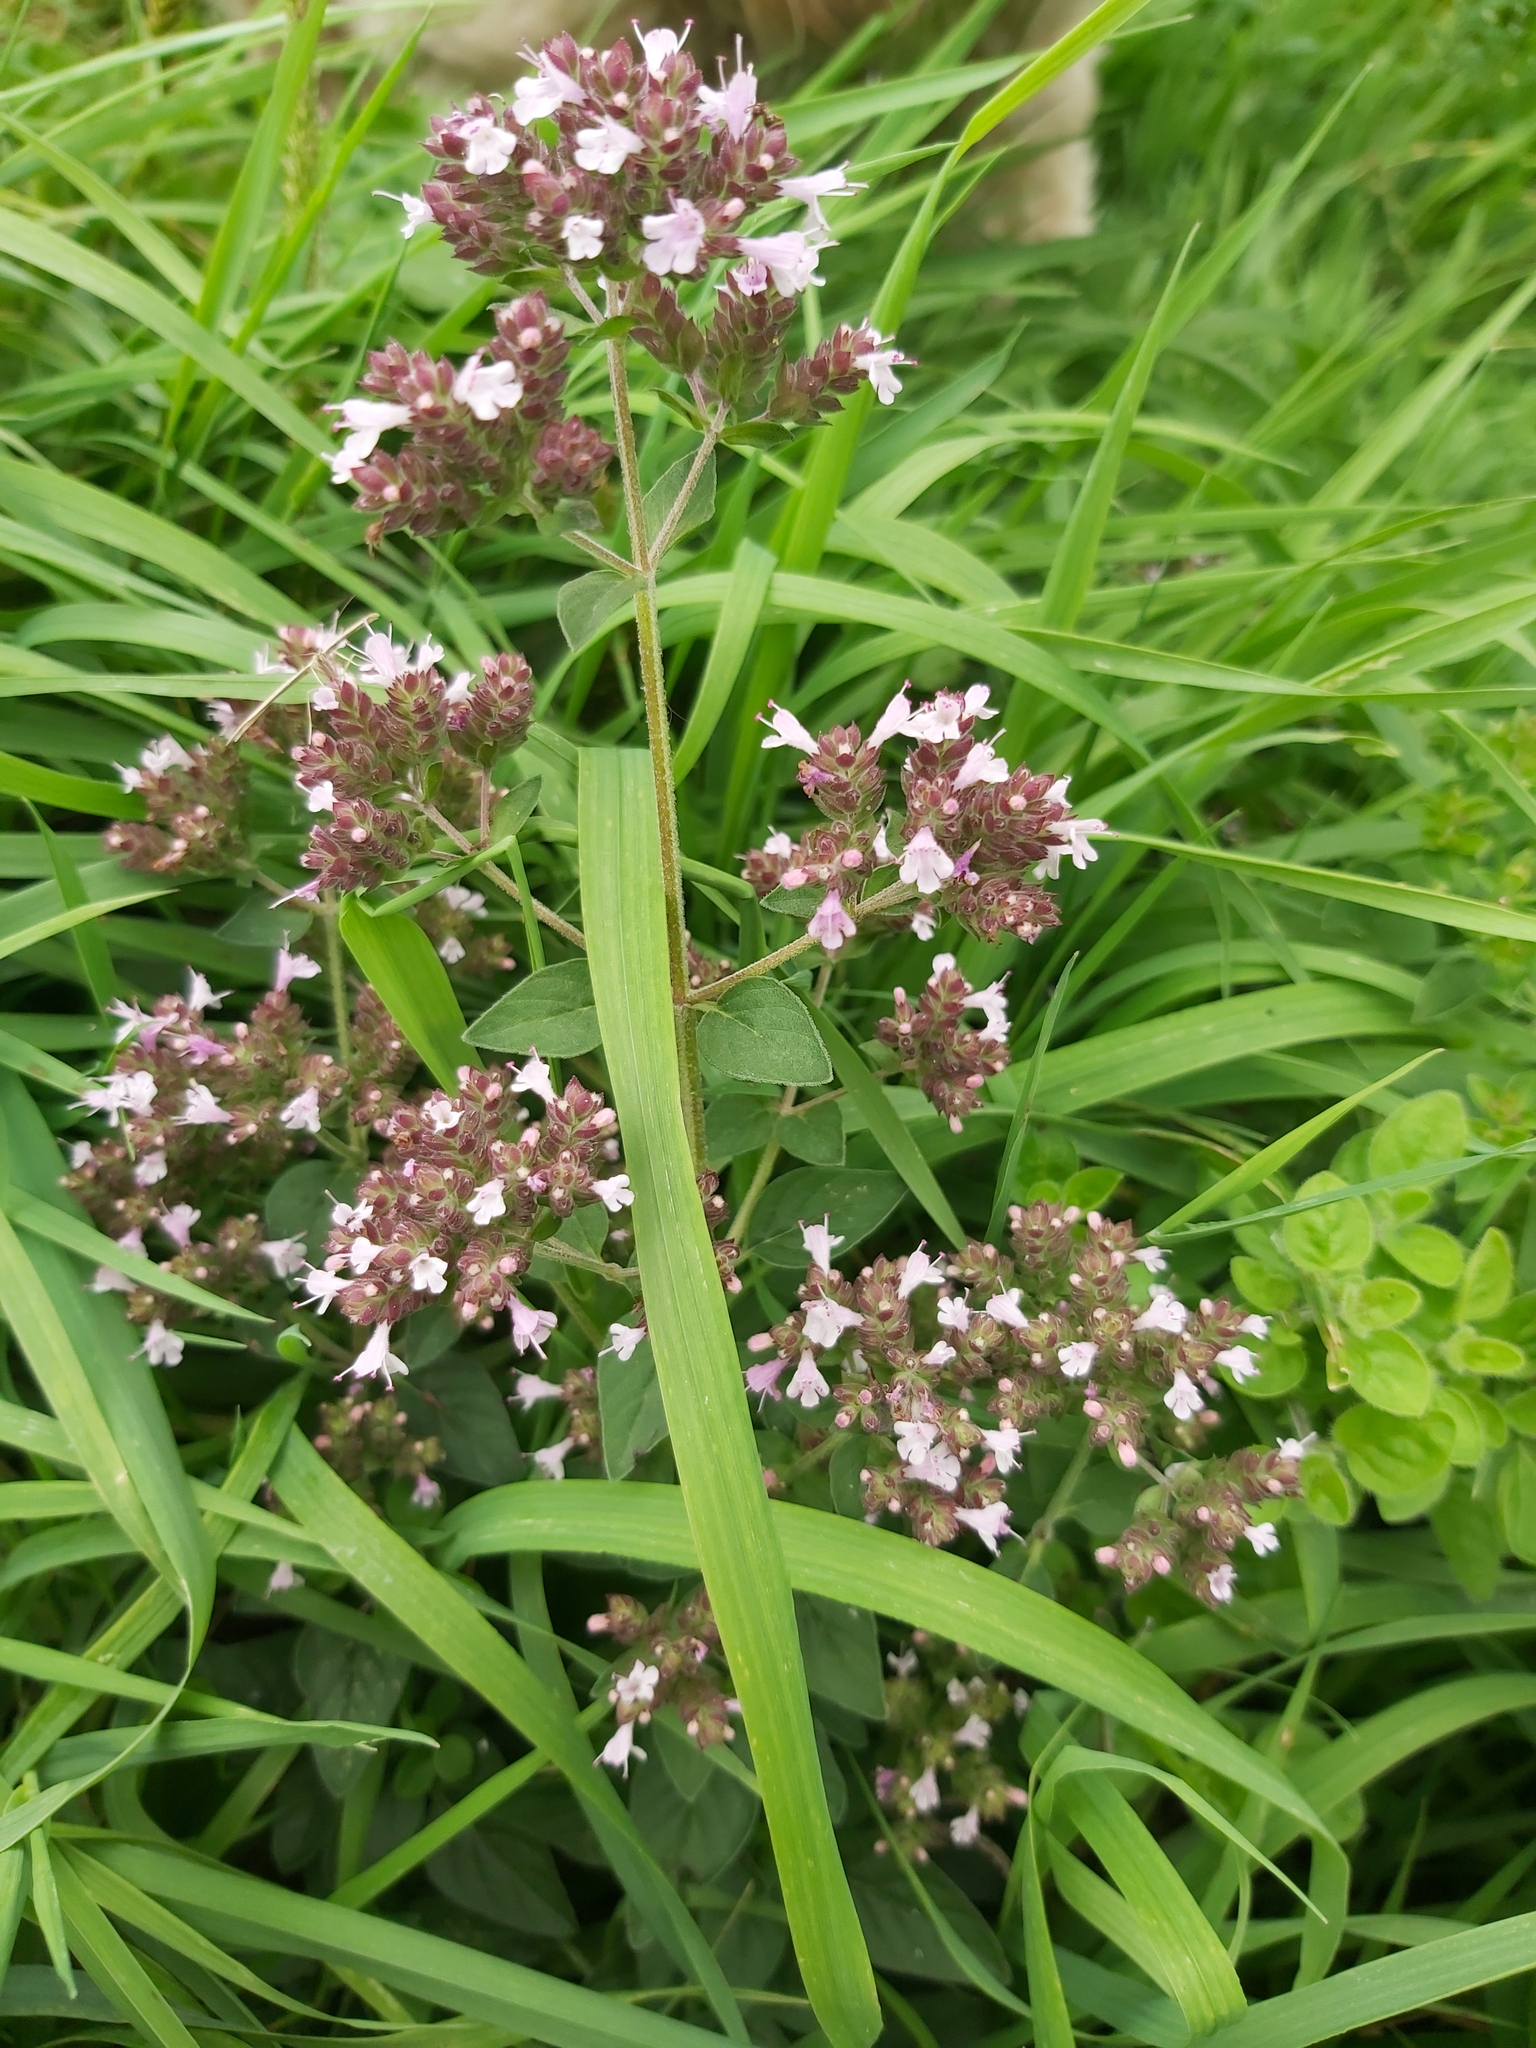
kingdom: Plantae
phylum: Tracheophyta
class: Magnoliopsida
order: Lamiales
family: Lamiaceae
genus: Origanum
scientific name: Origanum vulgare
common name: Wild marjoram
